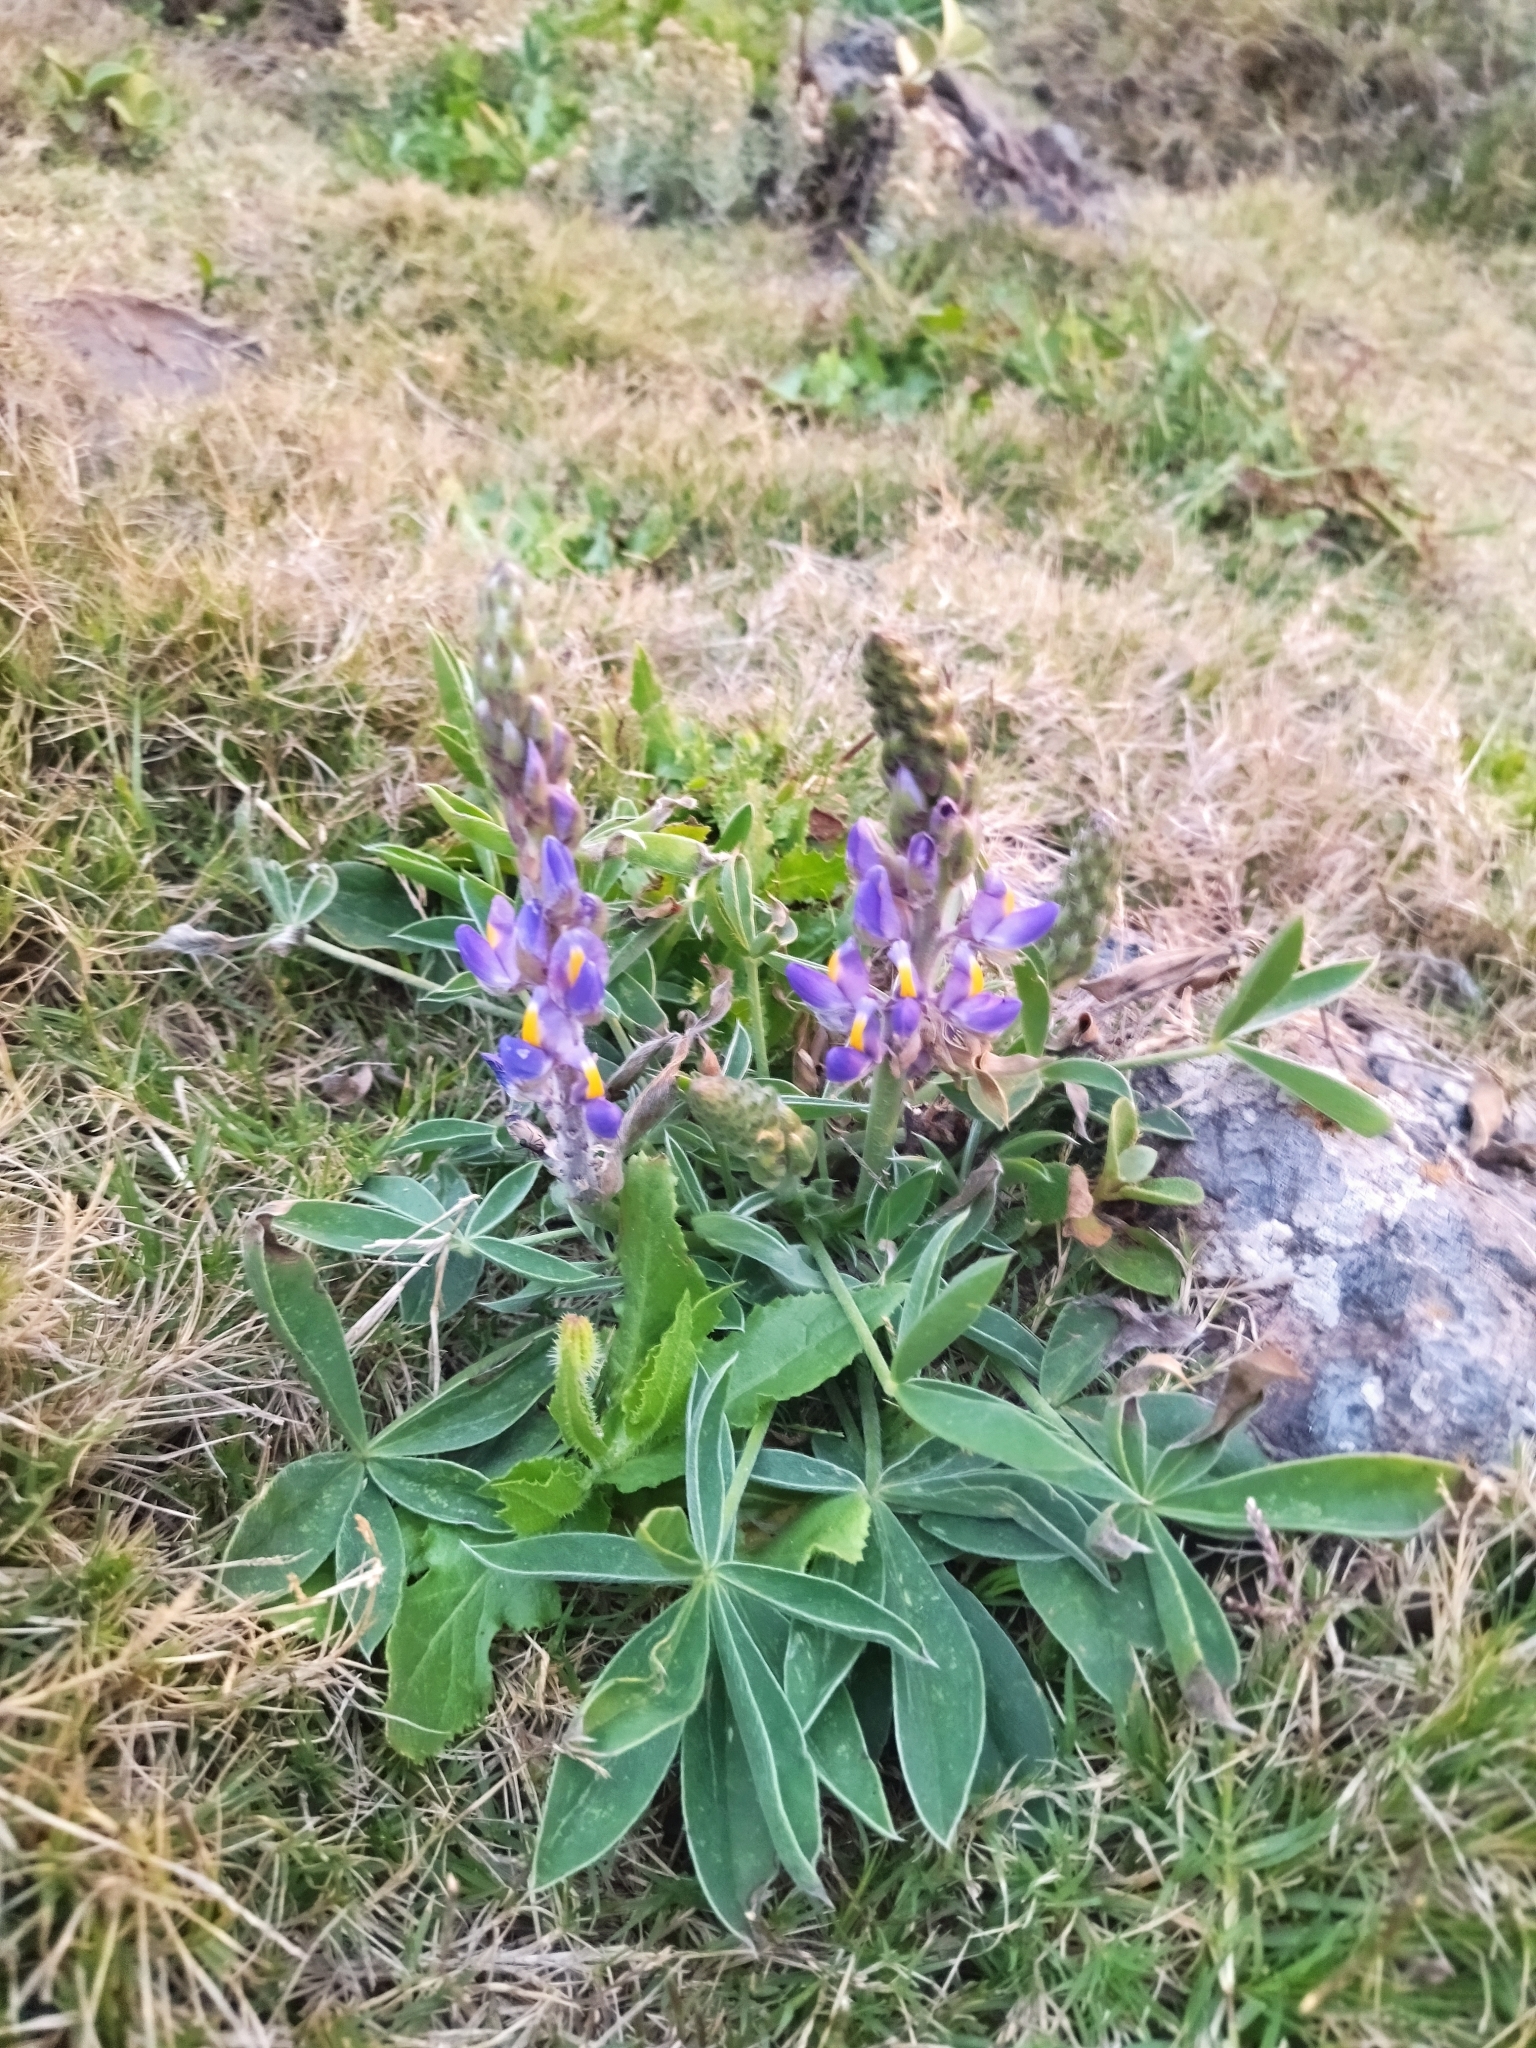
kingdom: Plantae
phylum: Tracheophyta
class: Magnoliopsida
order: Fabales
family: Fabaceae
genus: Lupinus
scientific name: Lupinus multiflorus
